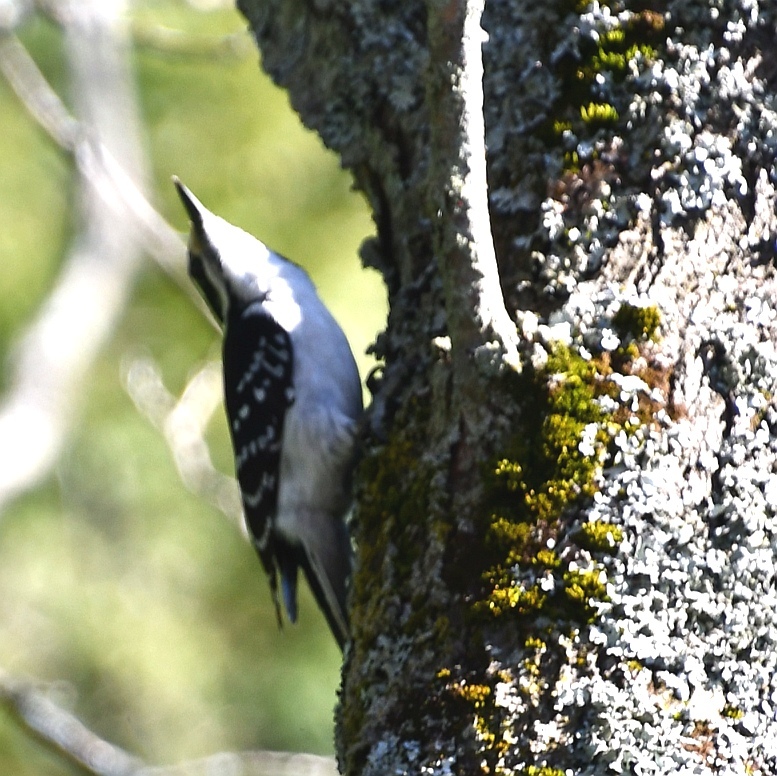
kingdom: Animalia
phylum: Chordata
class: Aves
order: Piciformes
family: Picidae
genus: Leuconotopicus
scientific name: Leuconotopicus villosus
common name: Hairy woodpecker
